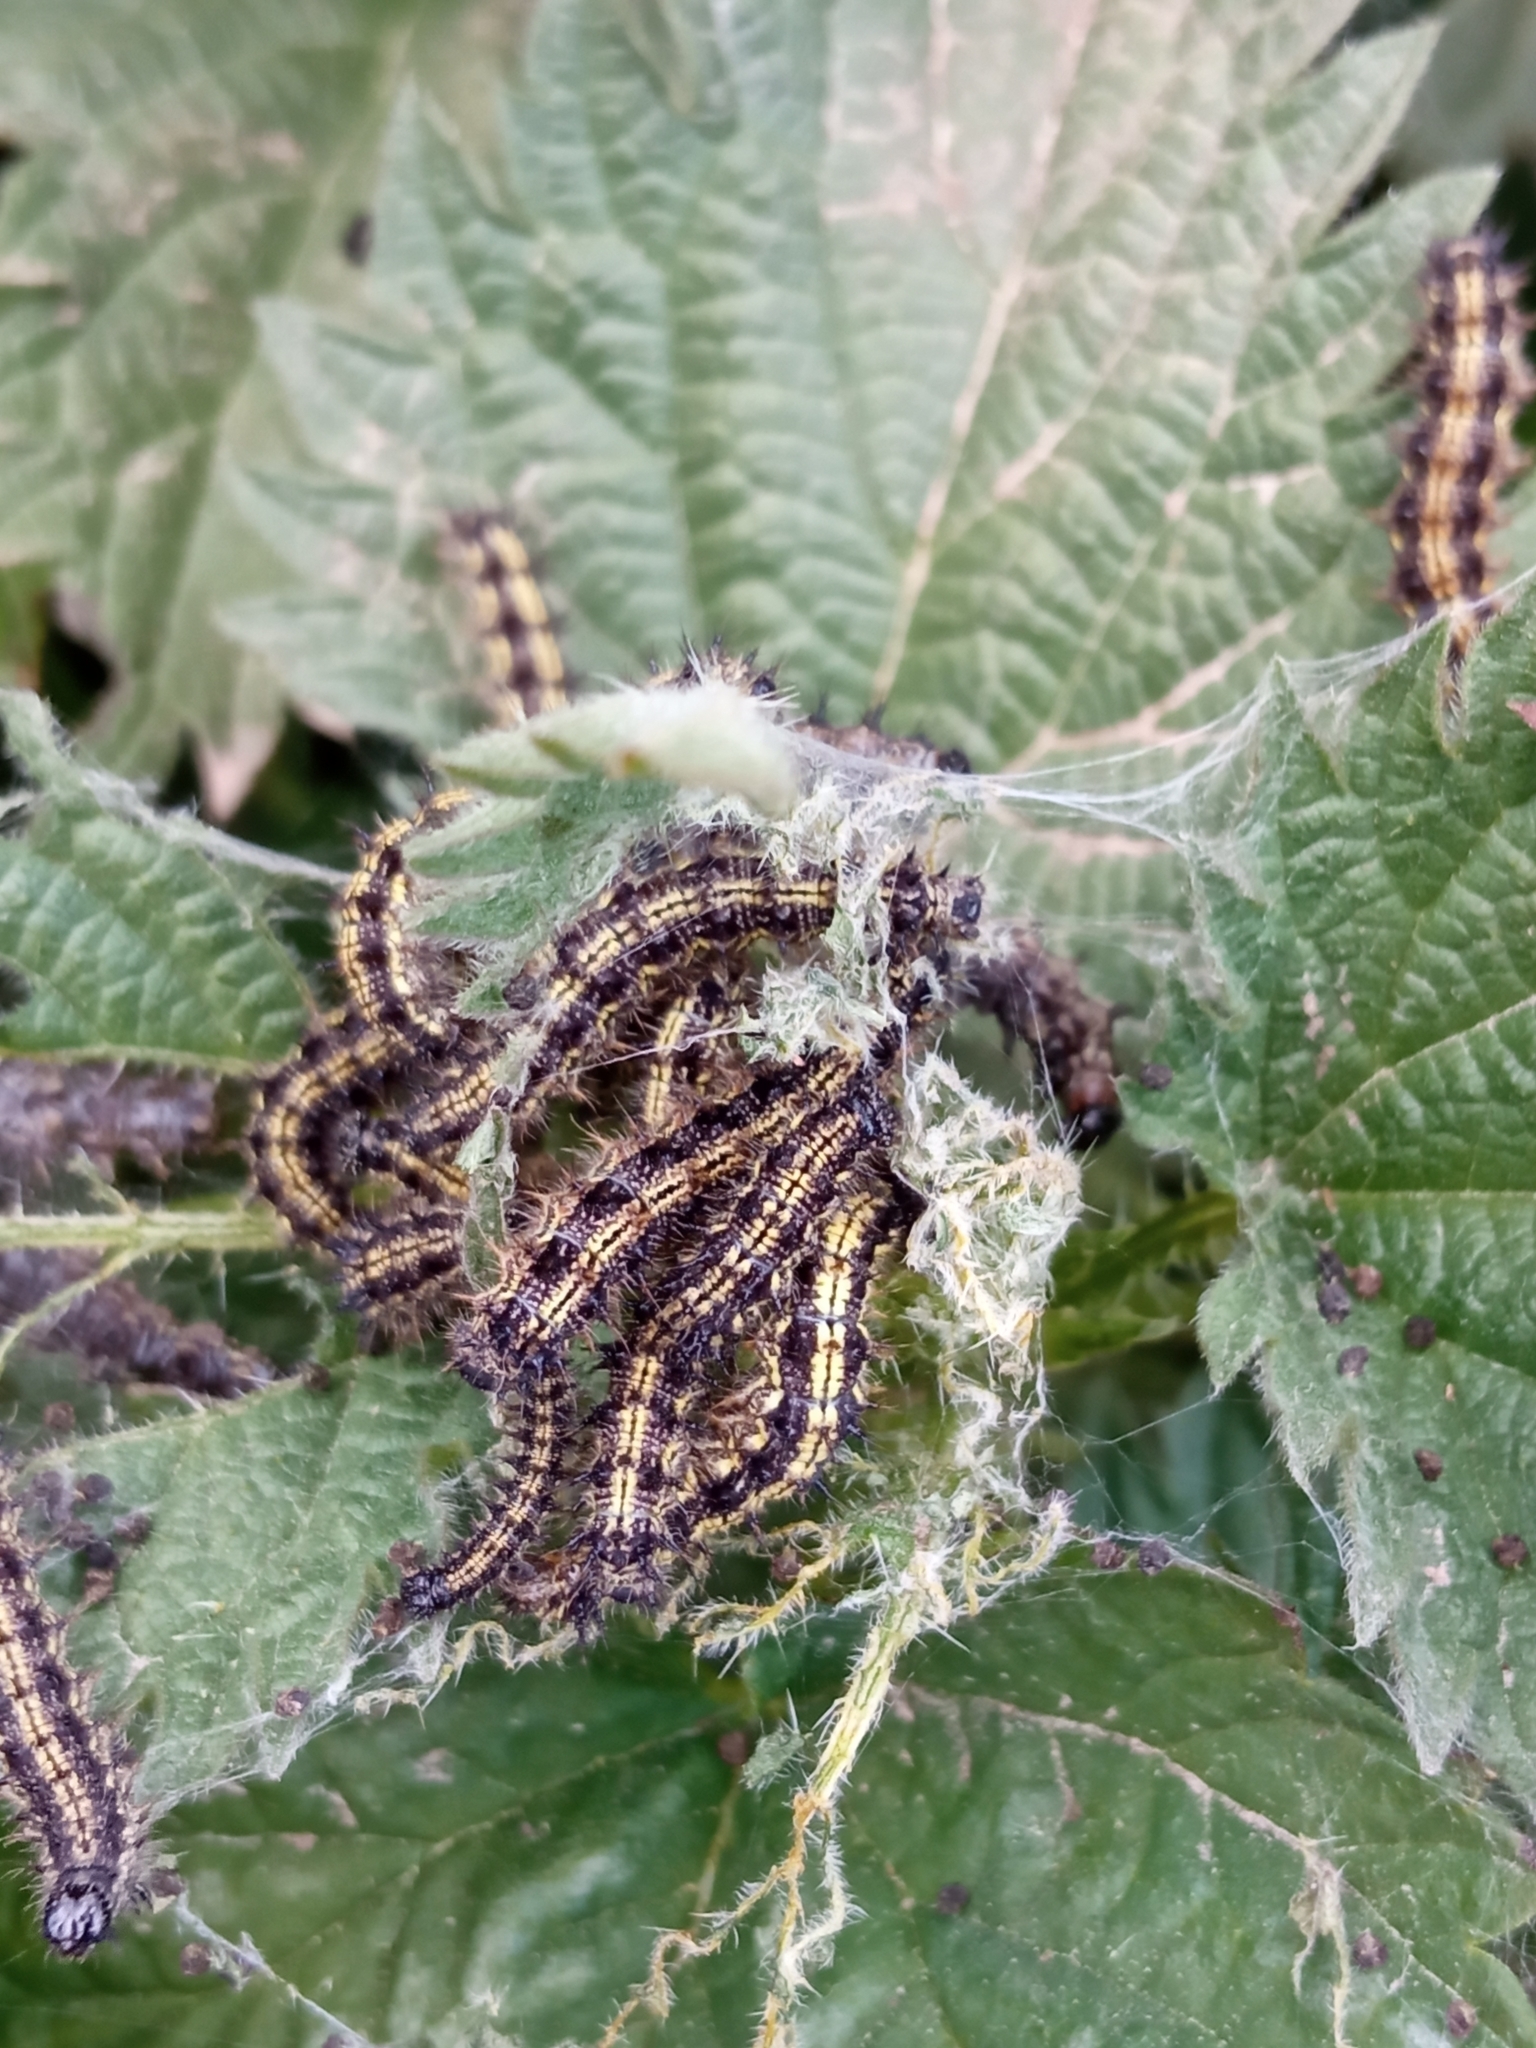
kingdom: Animalia
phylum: Arthropoda
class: Insecta
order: Lepidoptera
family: Nymphalidae
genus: Aglais
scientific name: Aglais urticae
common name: Small tortoiseshell
